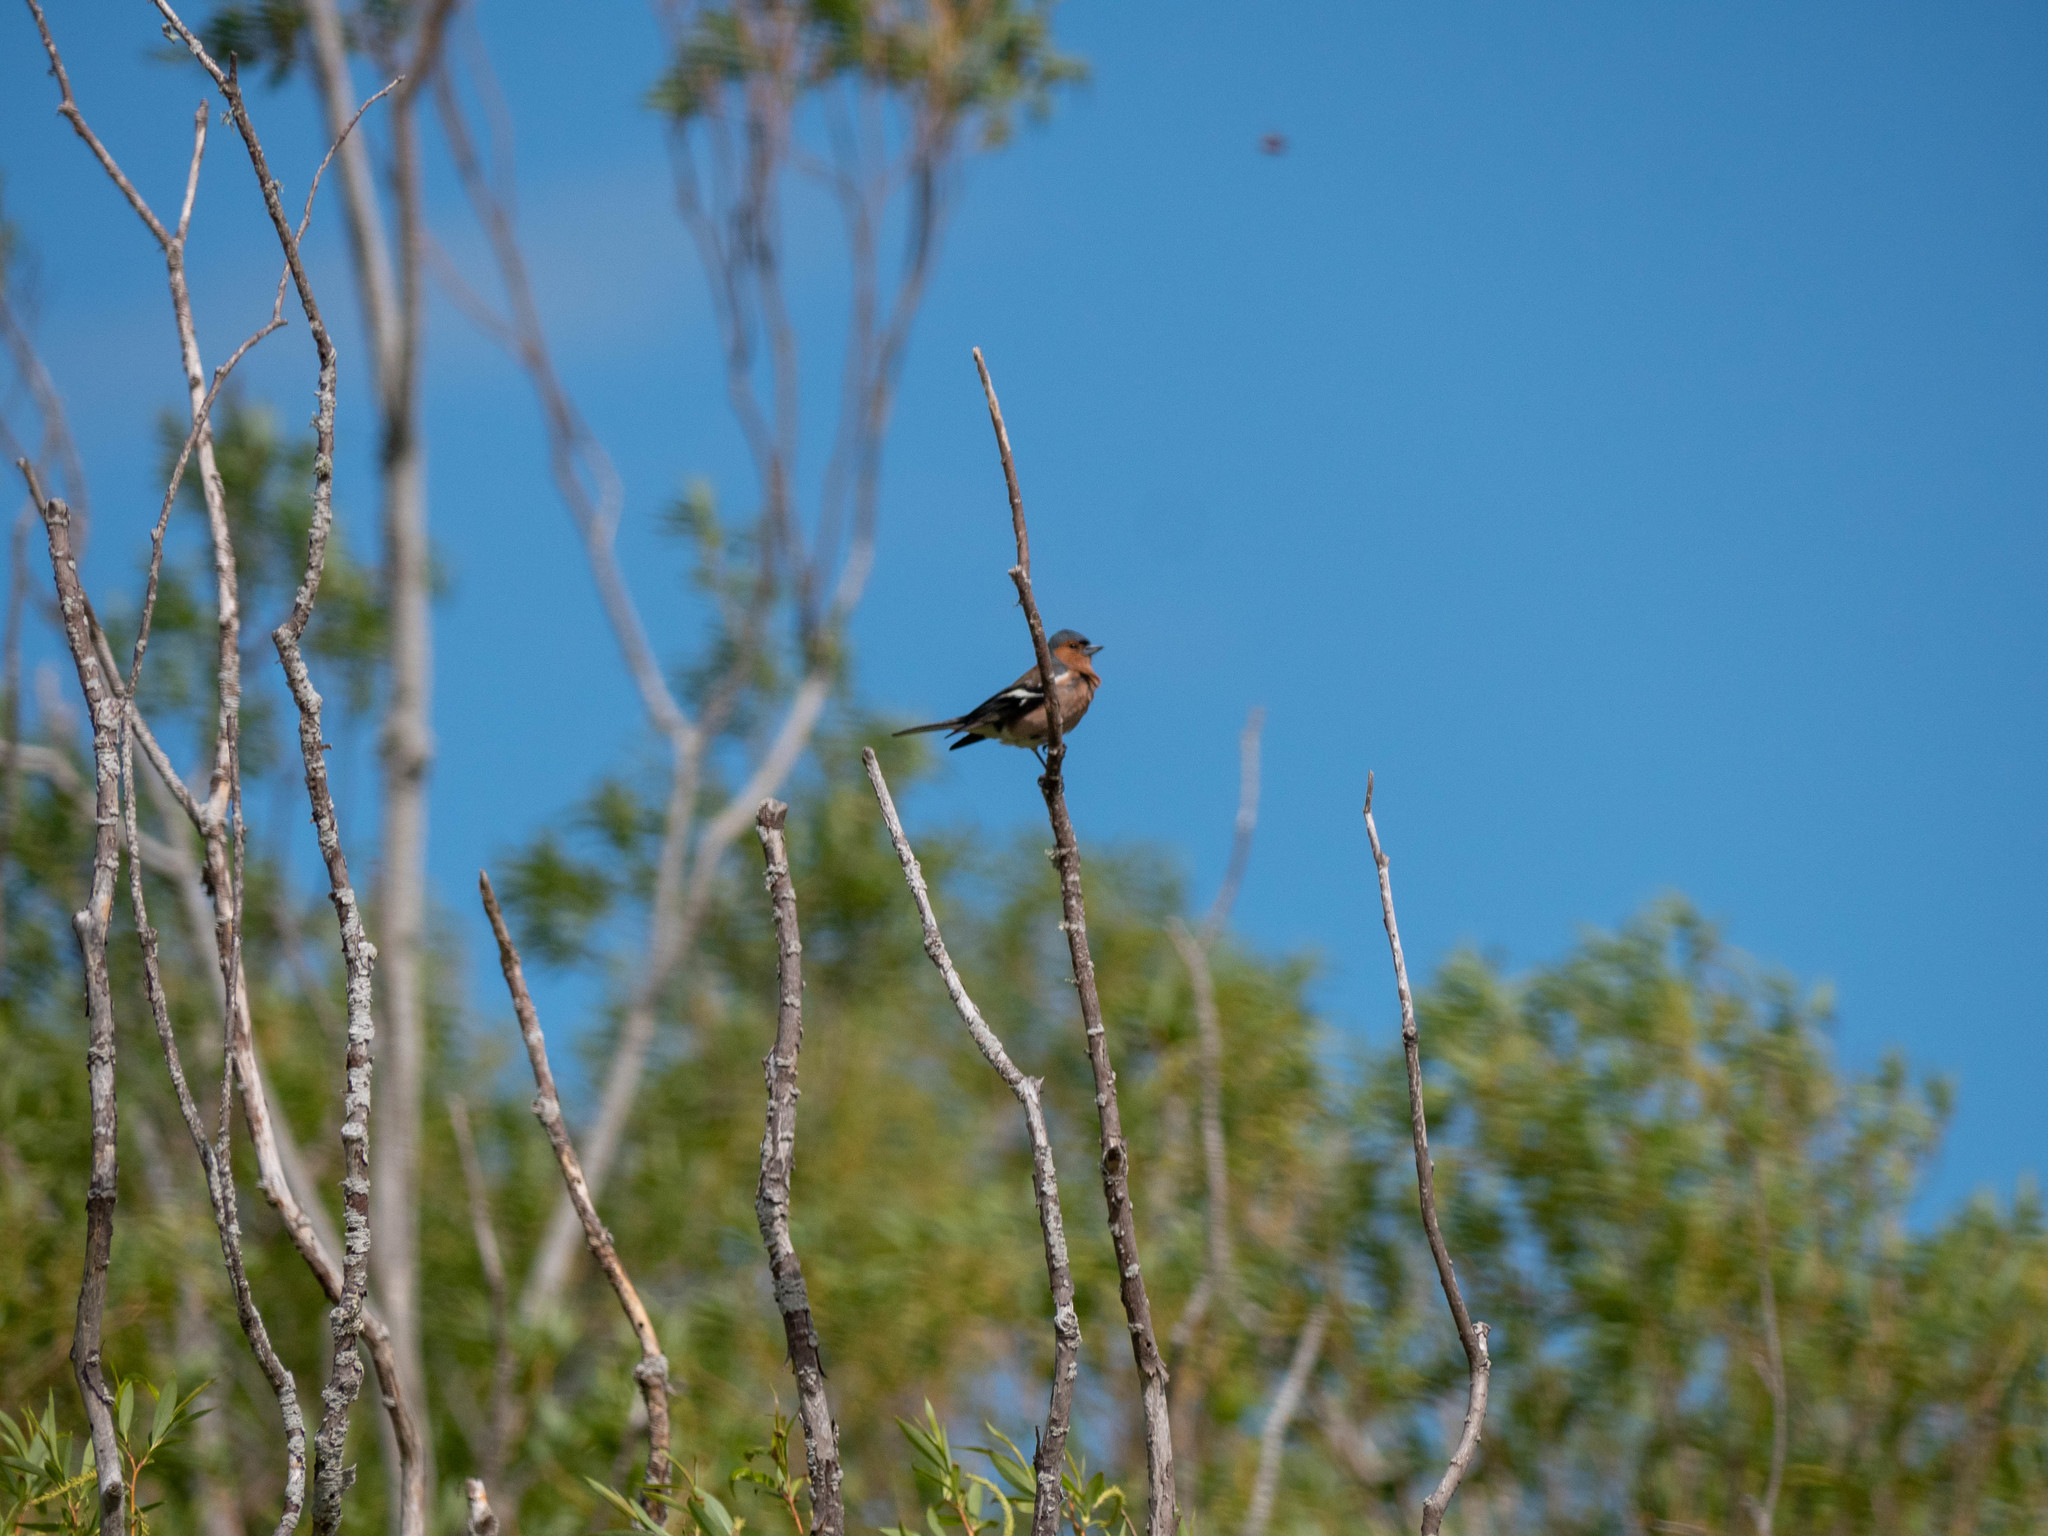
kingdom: Animalia
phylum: Chordata
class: Aves
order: Passeriformes
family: Fringillidae
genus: Fringilla
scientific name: Fringilla coelebs
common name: Common chaffinch
